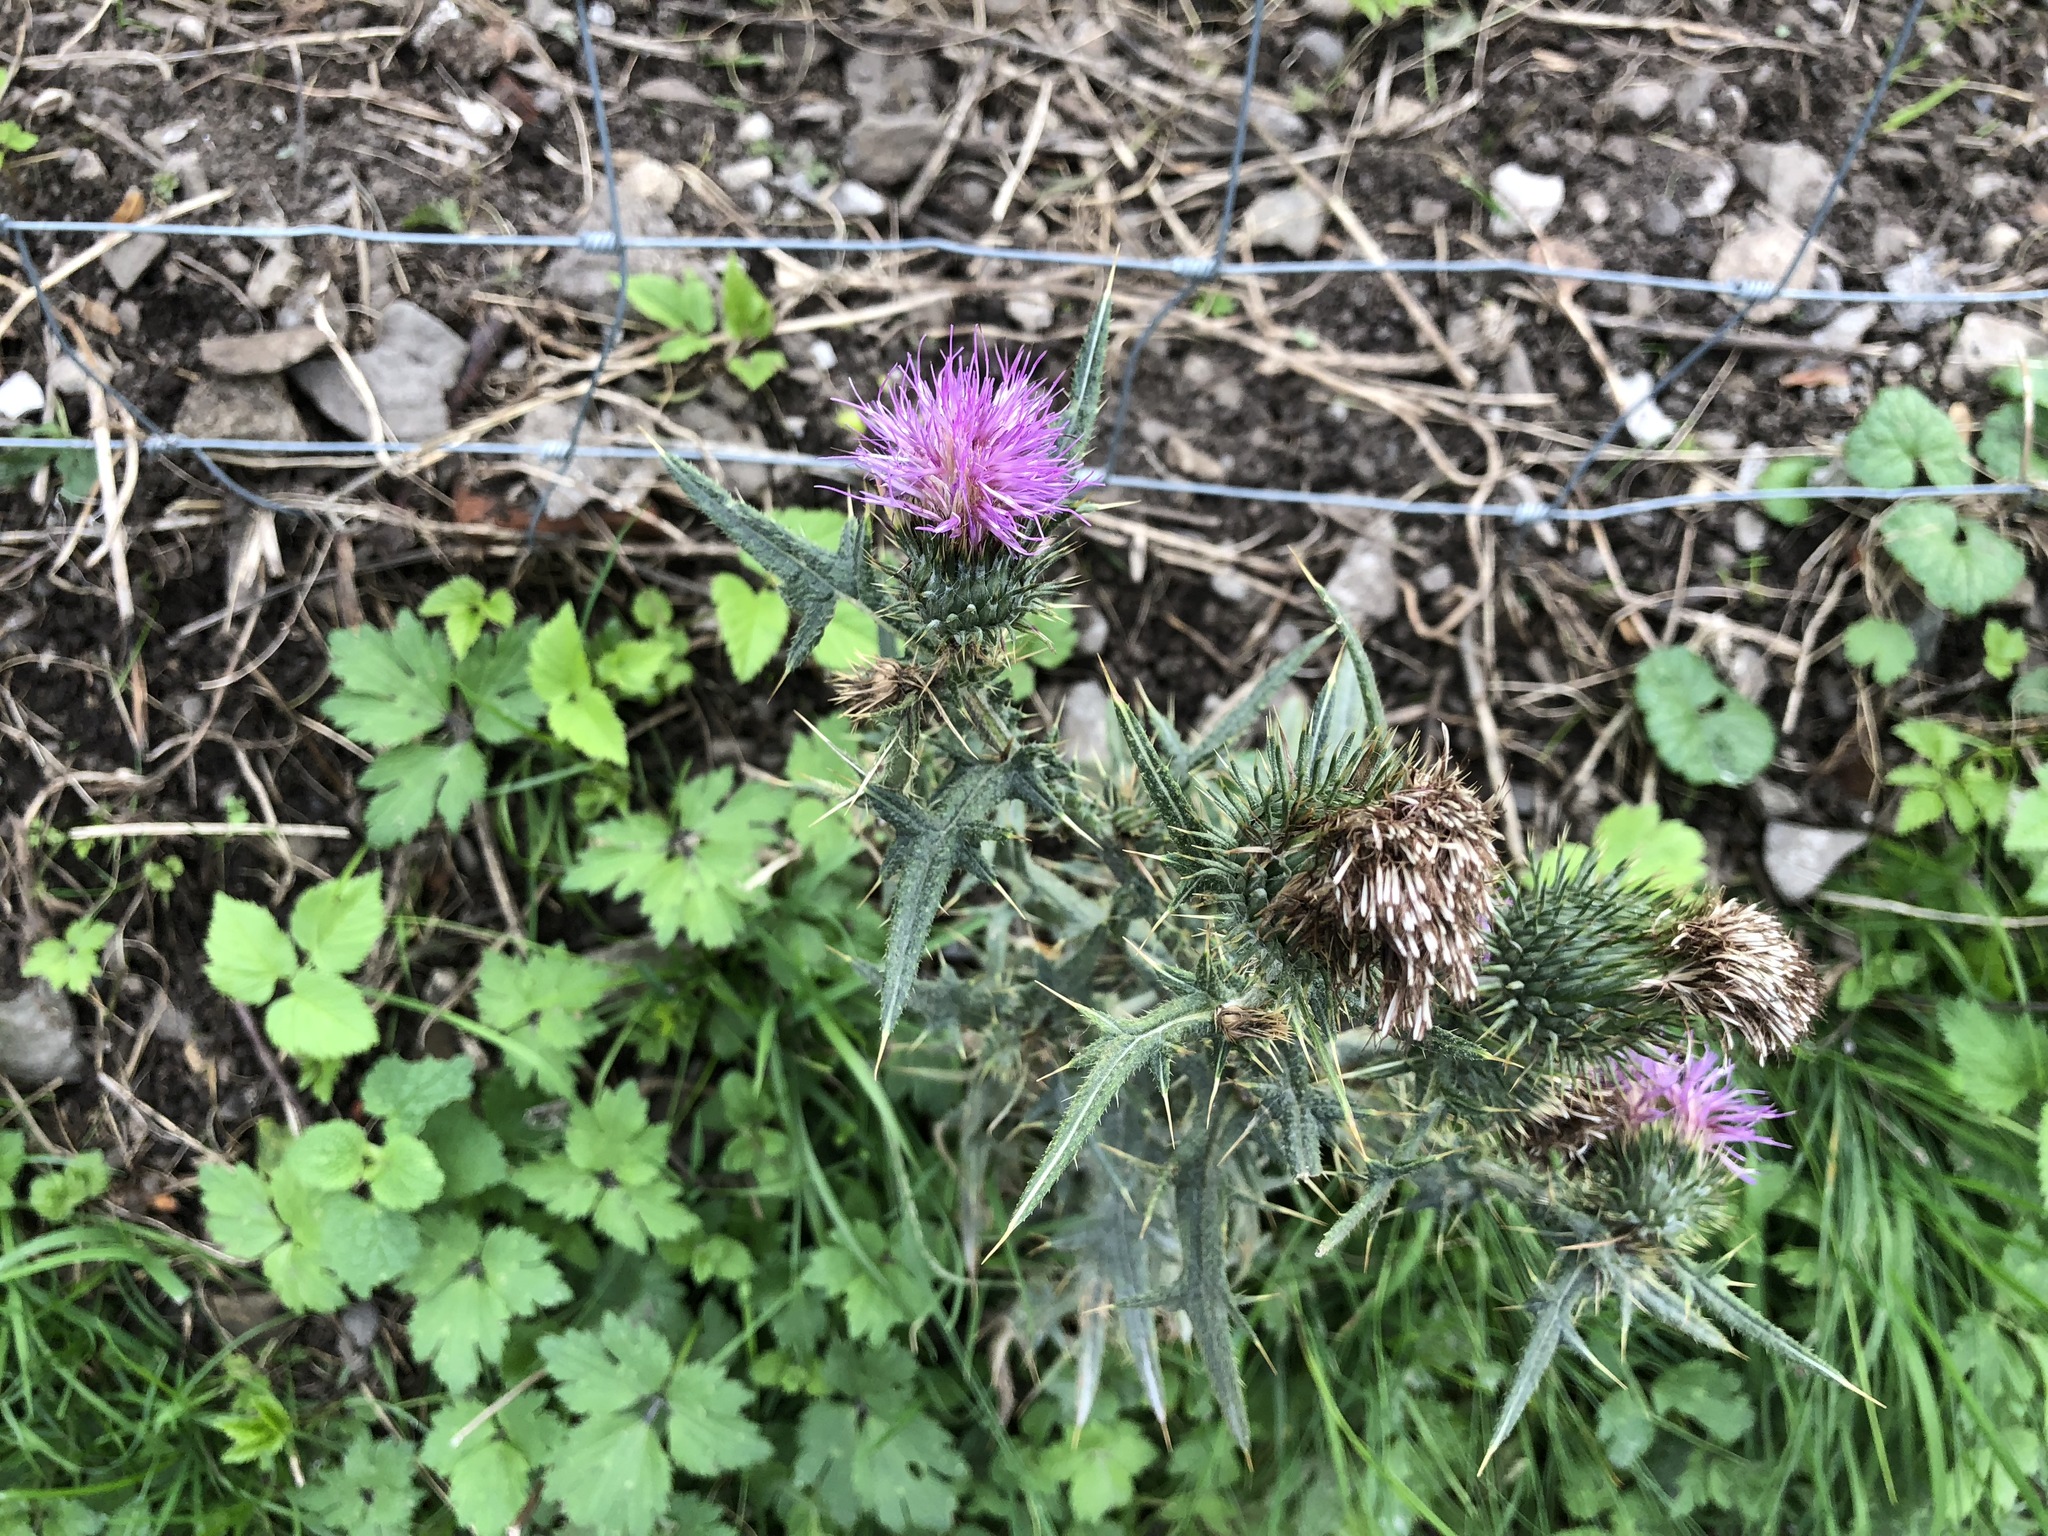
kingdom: Plantae
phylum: Tracheophyta
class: Magnoliopsida
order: Asterales
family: Asteraceae
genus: Cirsium
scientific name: Cirsium vulgare
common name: Bull thistle
